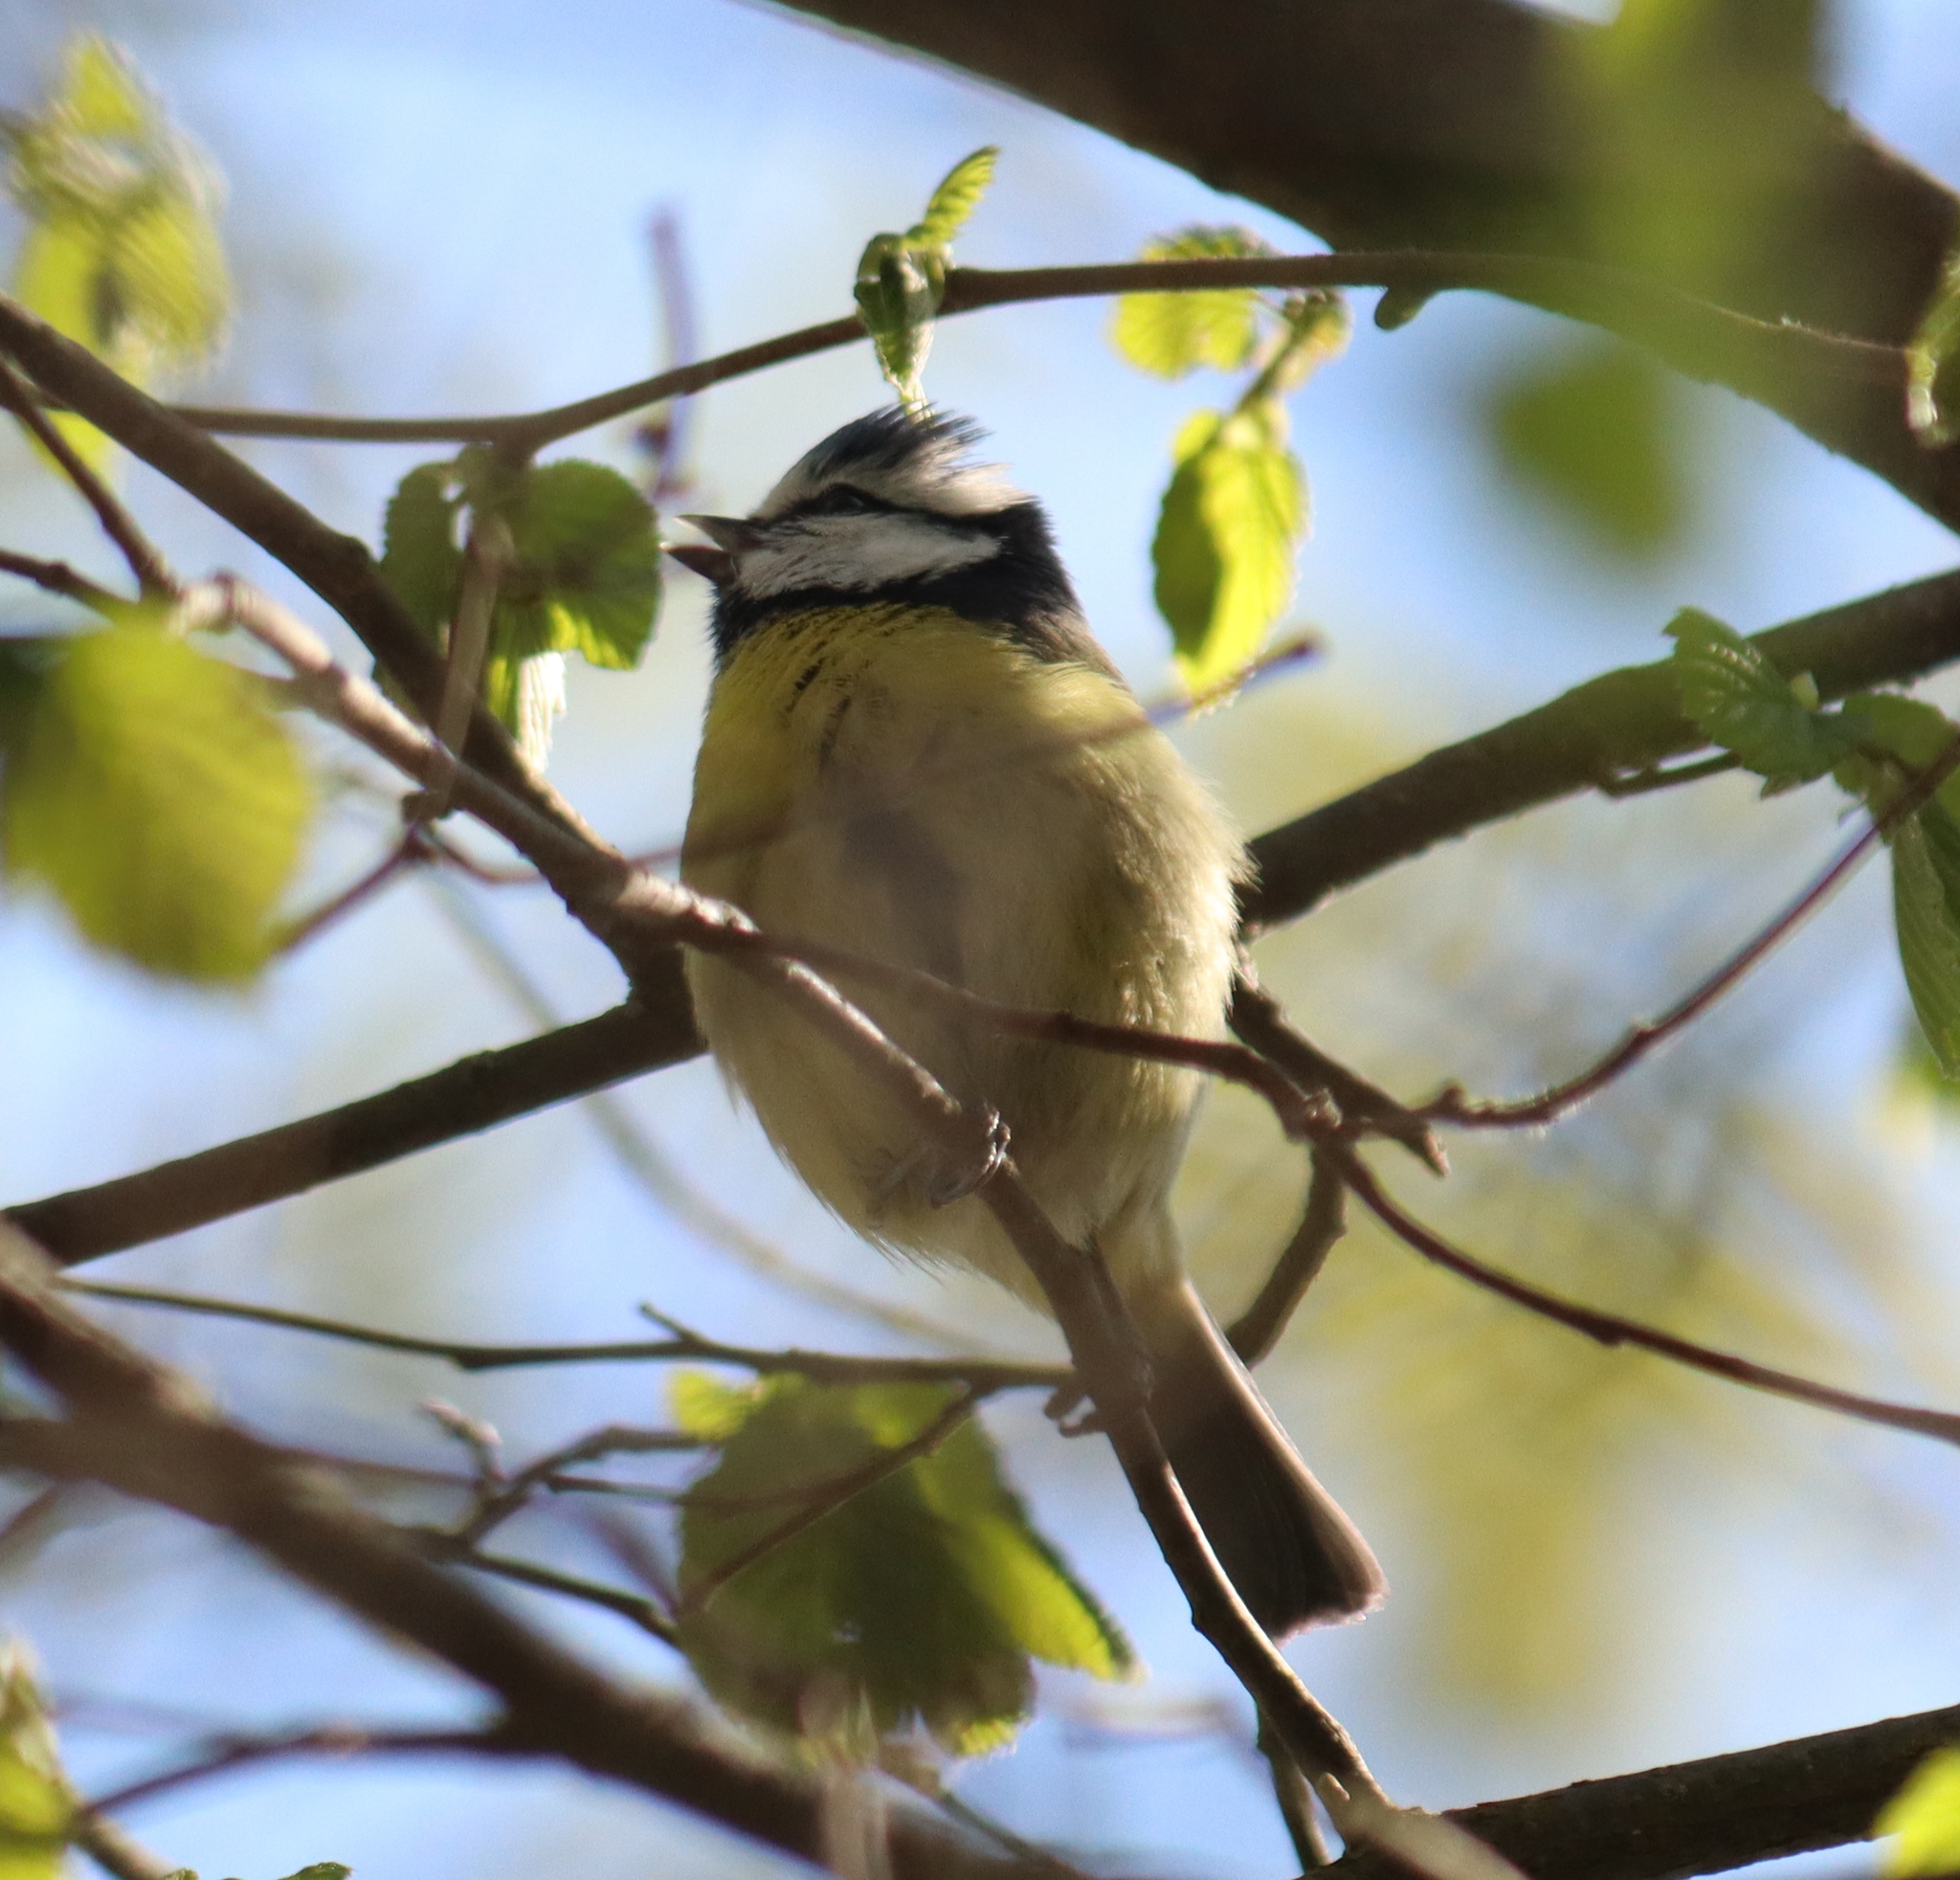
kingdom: Animalia
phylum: Chordata
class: Aves
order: Passeriformes
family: Paridae
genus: Cyanistes
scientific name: Cyanistes caeruleus
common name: Eurasian blue tit
